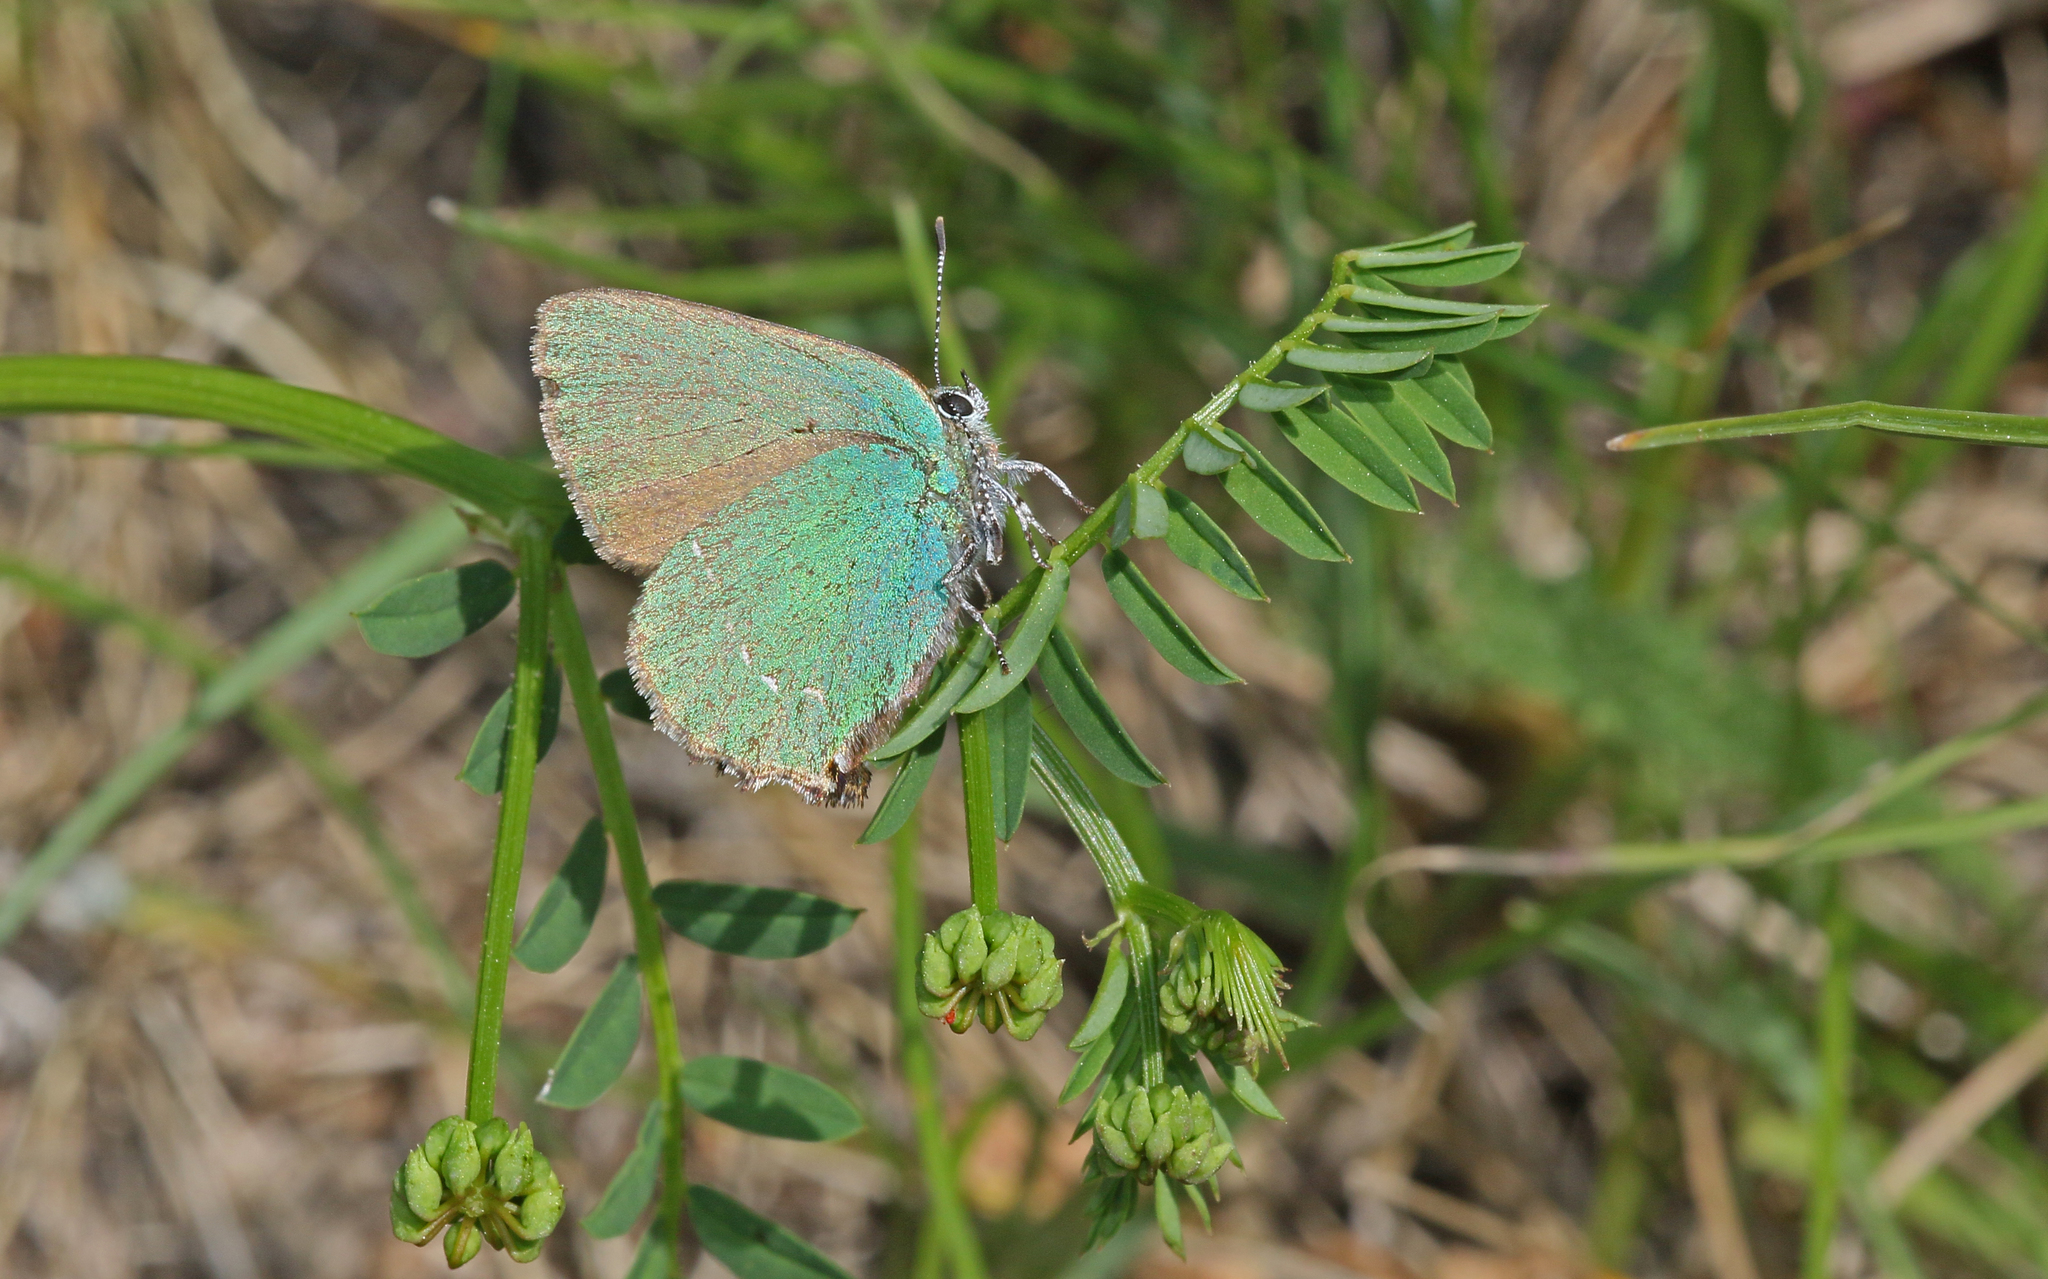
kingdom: Animalia
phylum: Arthropoda
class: Insecta
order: Lepidoptera
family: Lycaenidae
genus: Callophrys
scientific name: Callophrys rubi
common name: Green hairstreak
